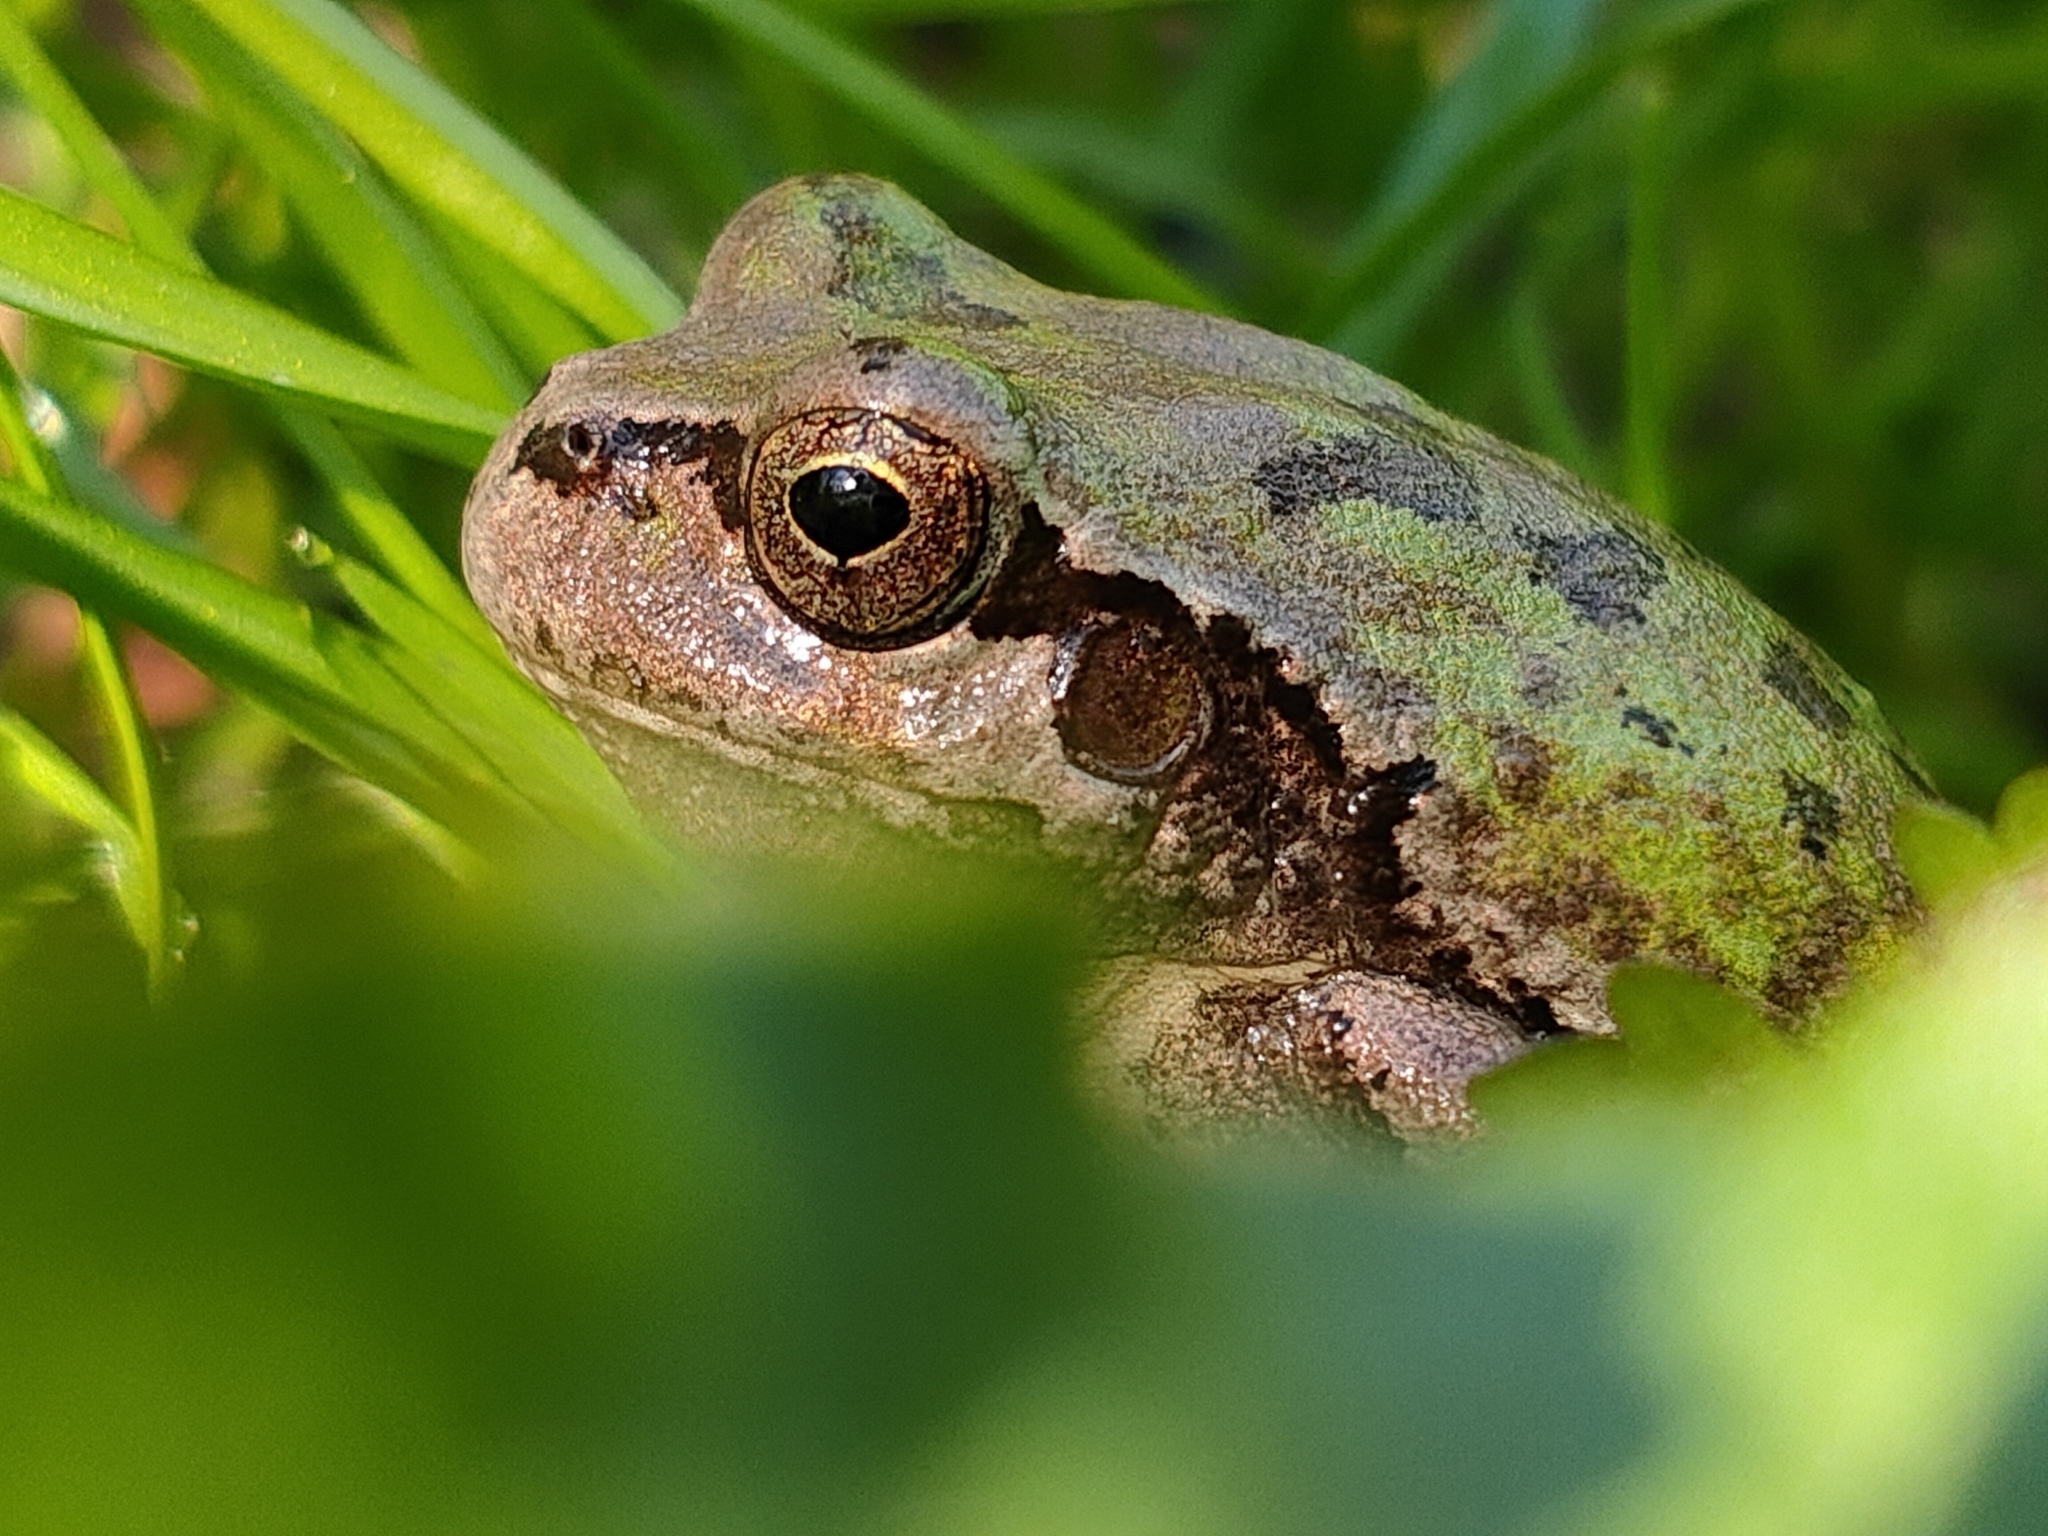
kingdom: Animalia
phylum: Chordata
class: Amphibia
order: Anura
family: Hylidae
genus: Dryophytes
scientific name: Dryophytes japonicus
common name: Japanese treefrog
